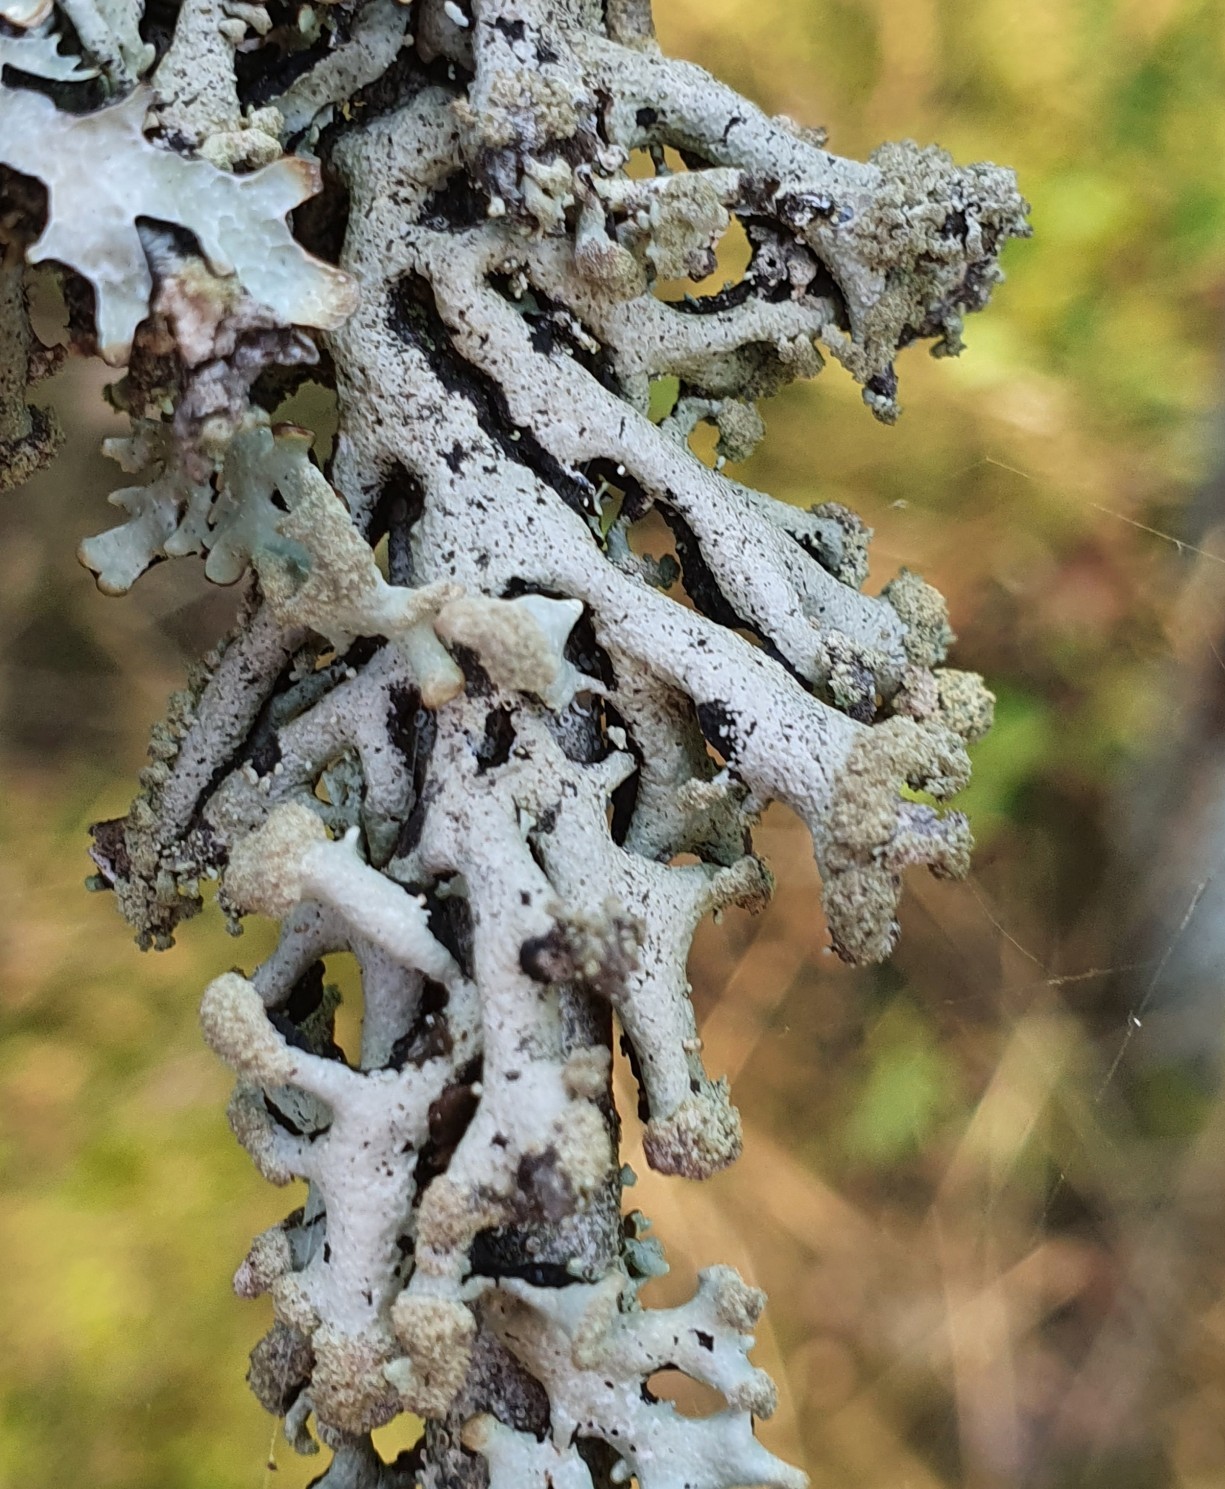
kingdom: Fungi
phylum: Ascomycota
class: Lecanoromycetes
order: Lecanorales
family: Parmeliaceae
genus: Hypogymnia
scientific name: Hypogymnia tubulosa
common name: Powder-headed tube lichen
